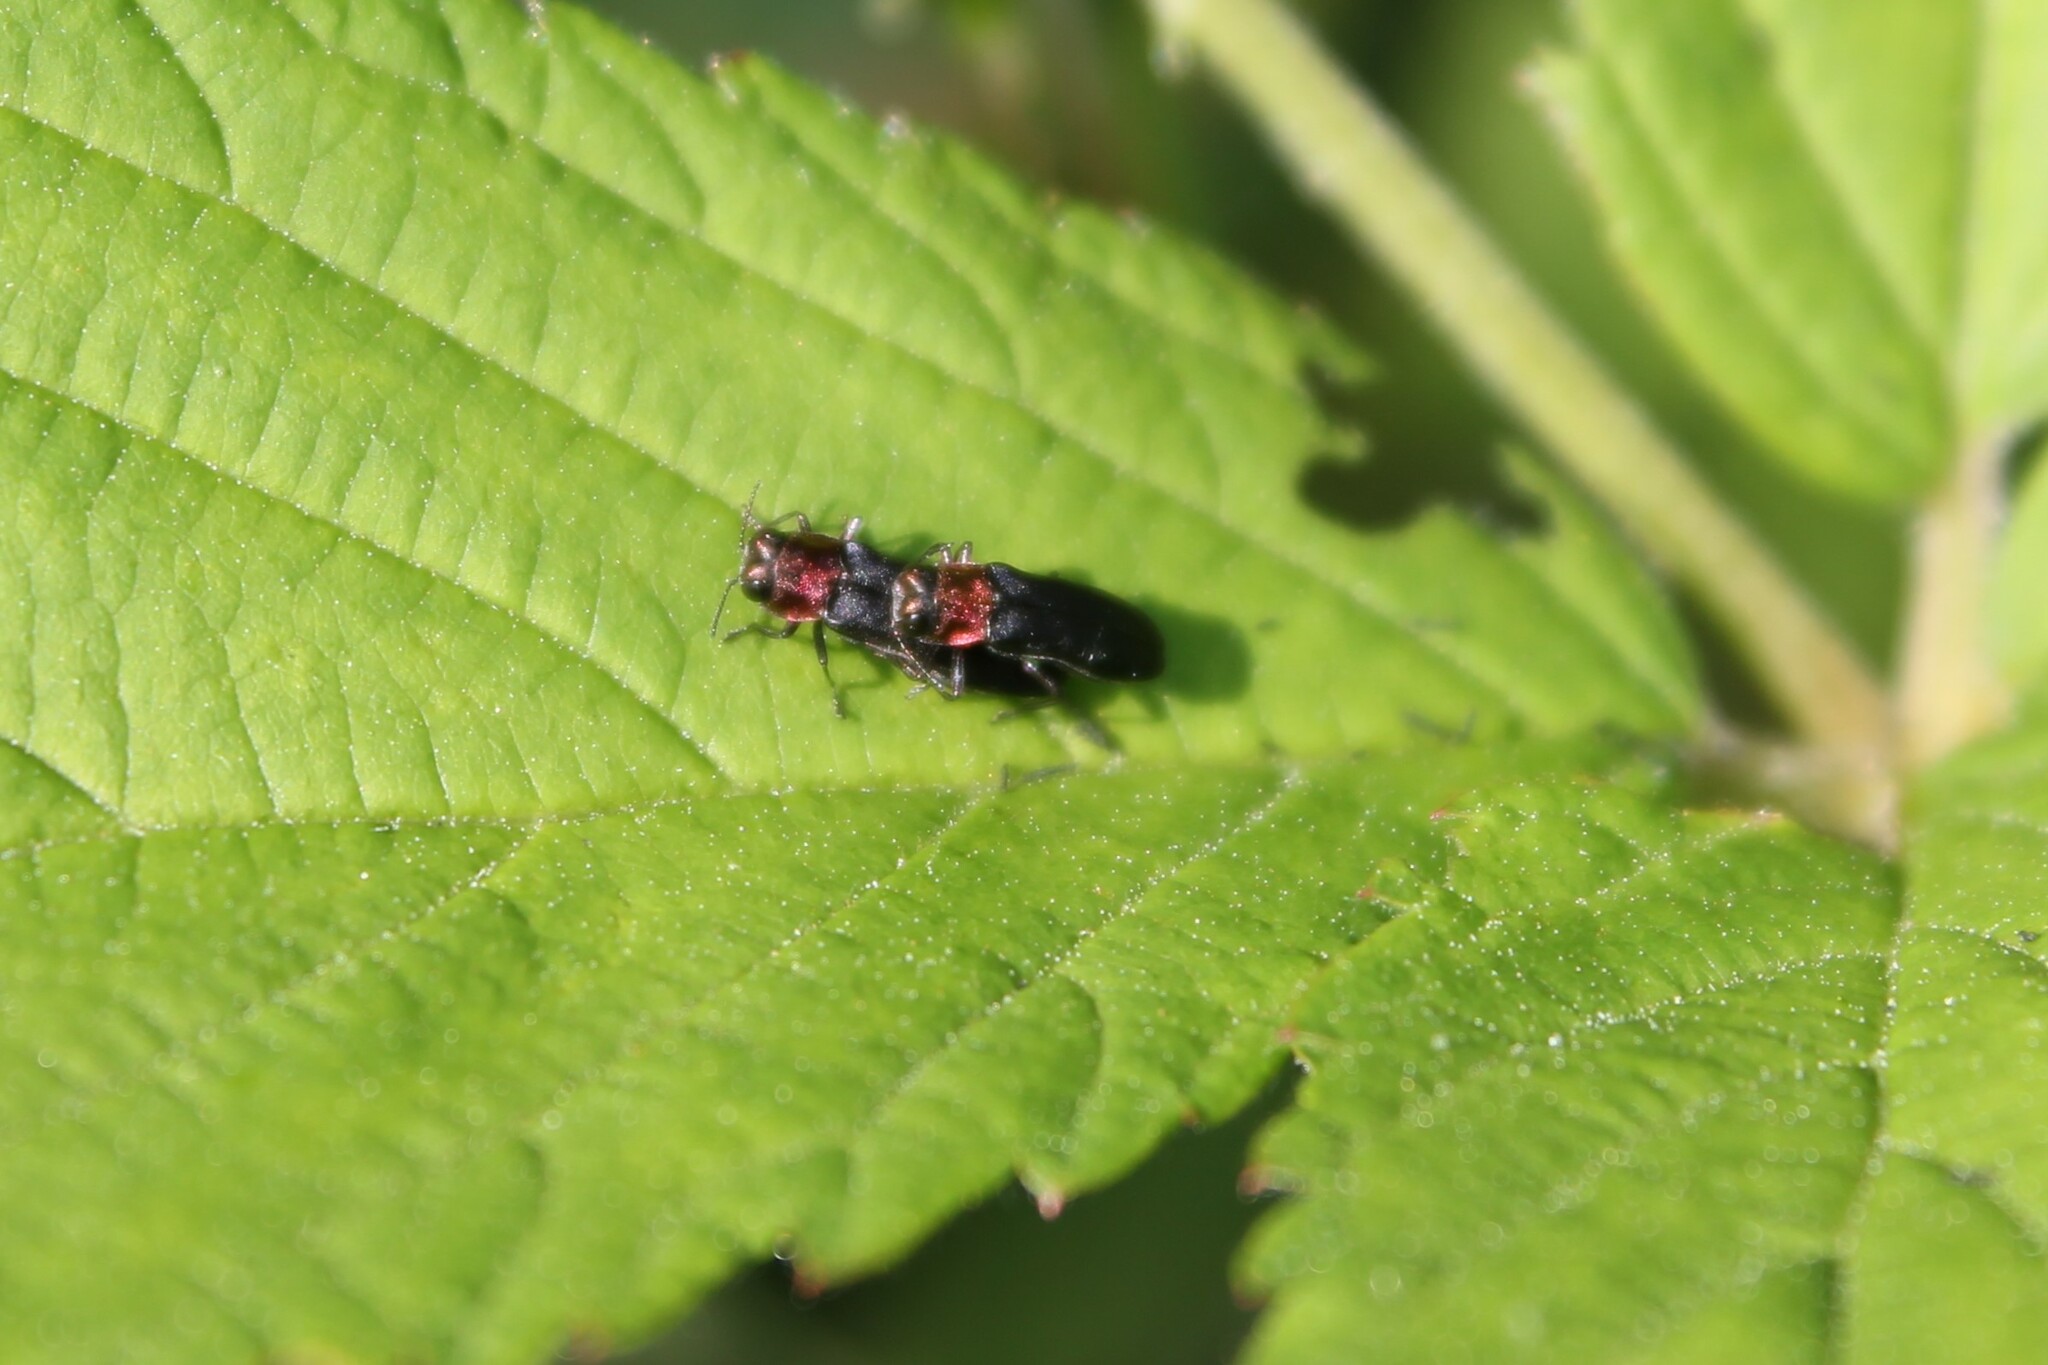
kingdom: Animalia
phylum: Arthropoda
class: Insecta
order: Coleoptera
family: Buprestidae
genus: Agrilus
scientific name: Agrilus ruficollis
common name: Red-necked cane borer beetle
